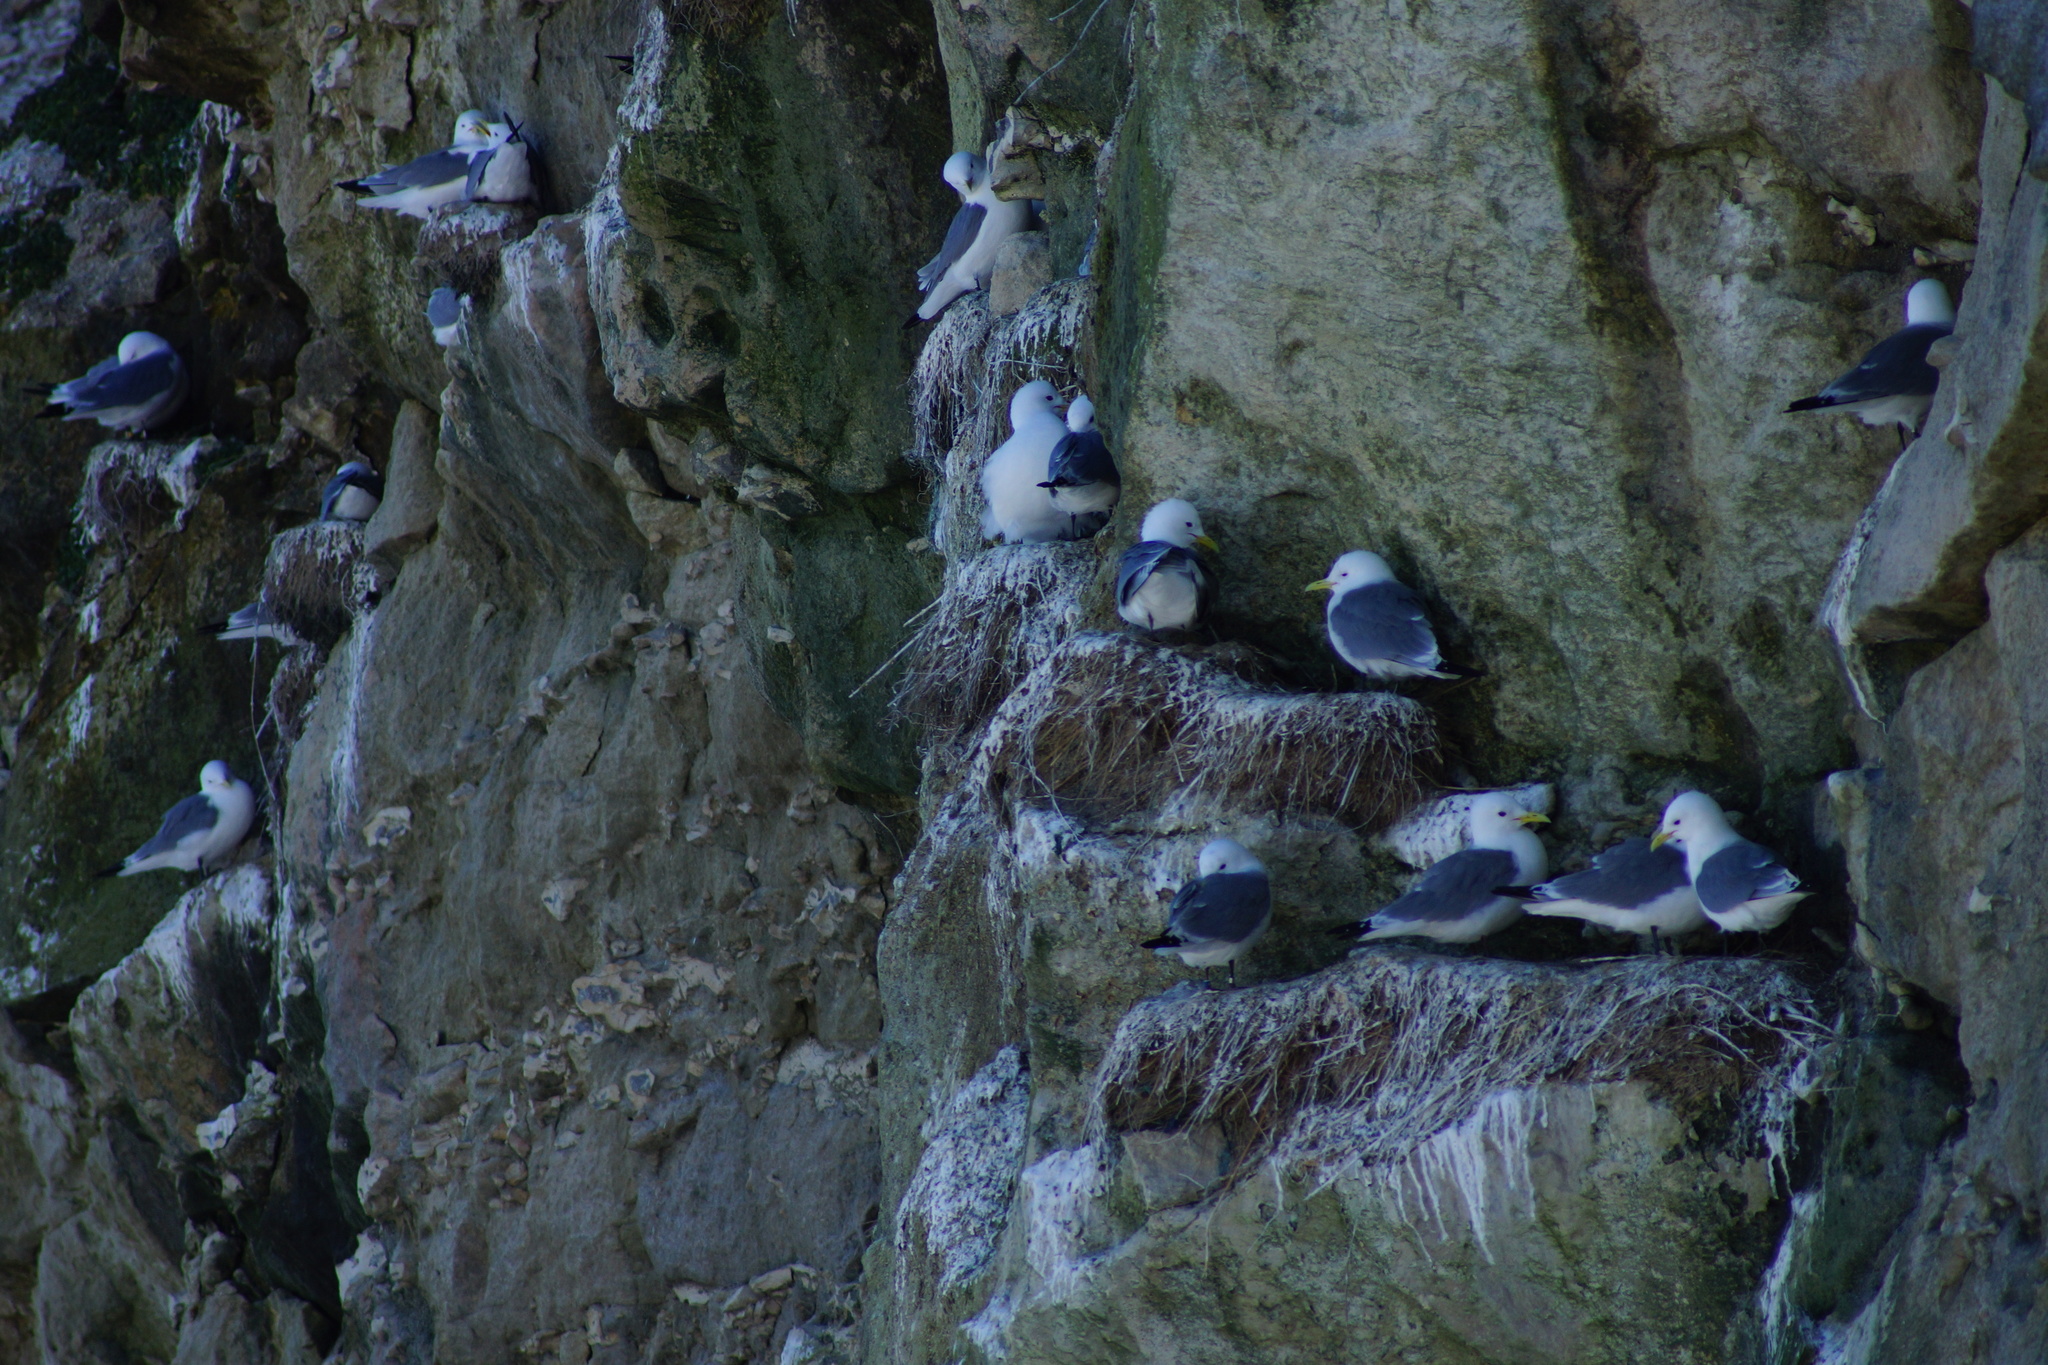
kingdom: Animalia
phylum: Chordata
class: Aves
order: Charadriiformes
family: Laridae
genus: Rissa
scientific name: Rissa tridactyla
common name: Black-legged kittiwake
